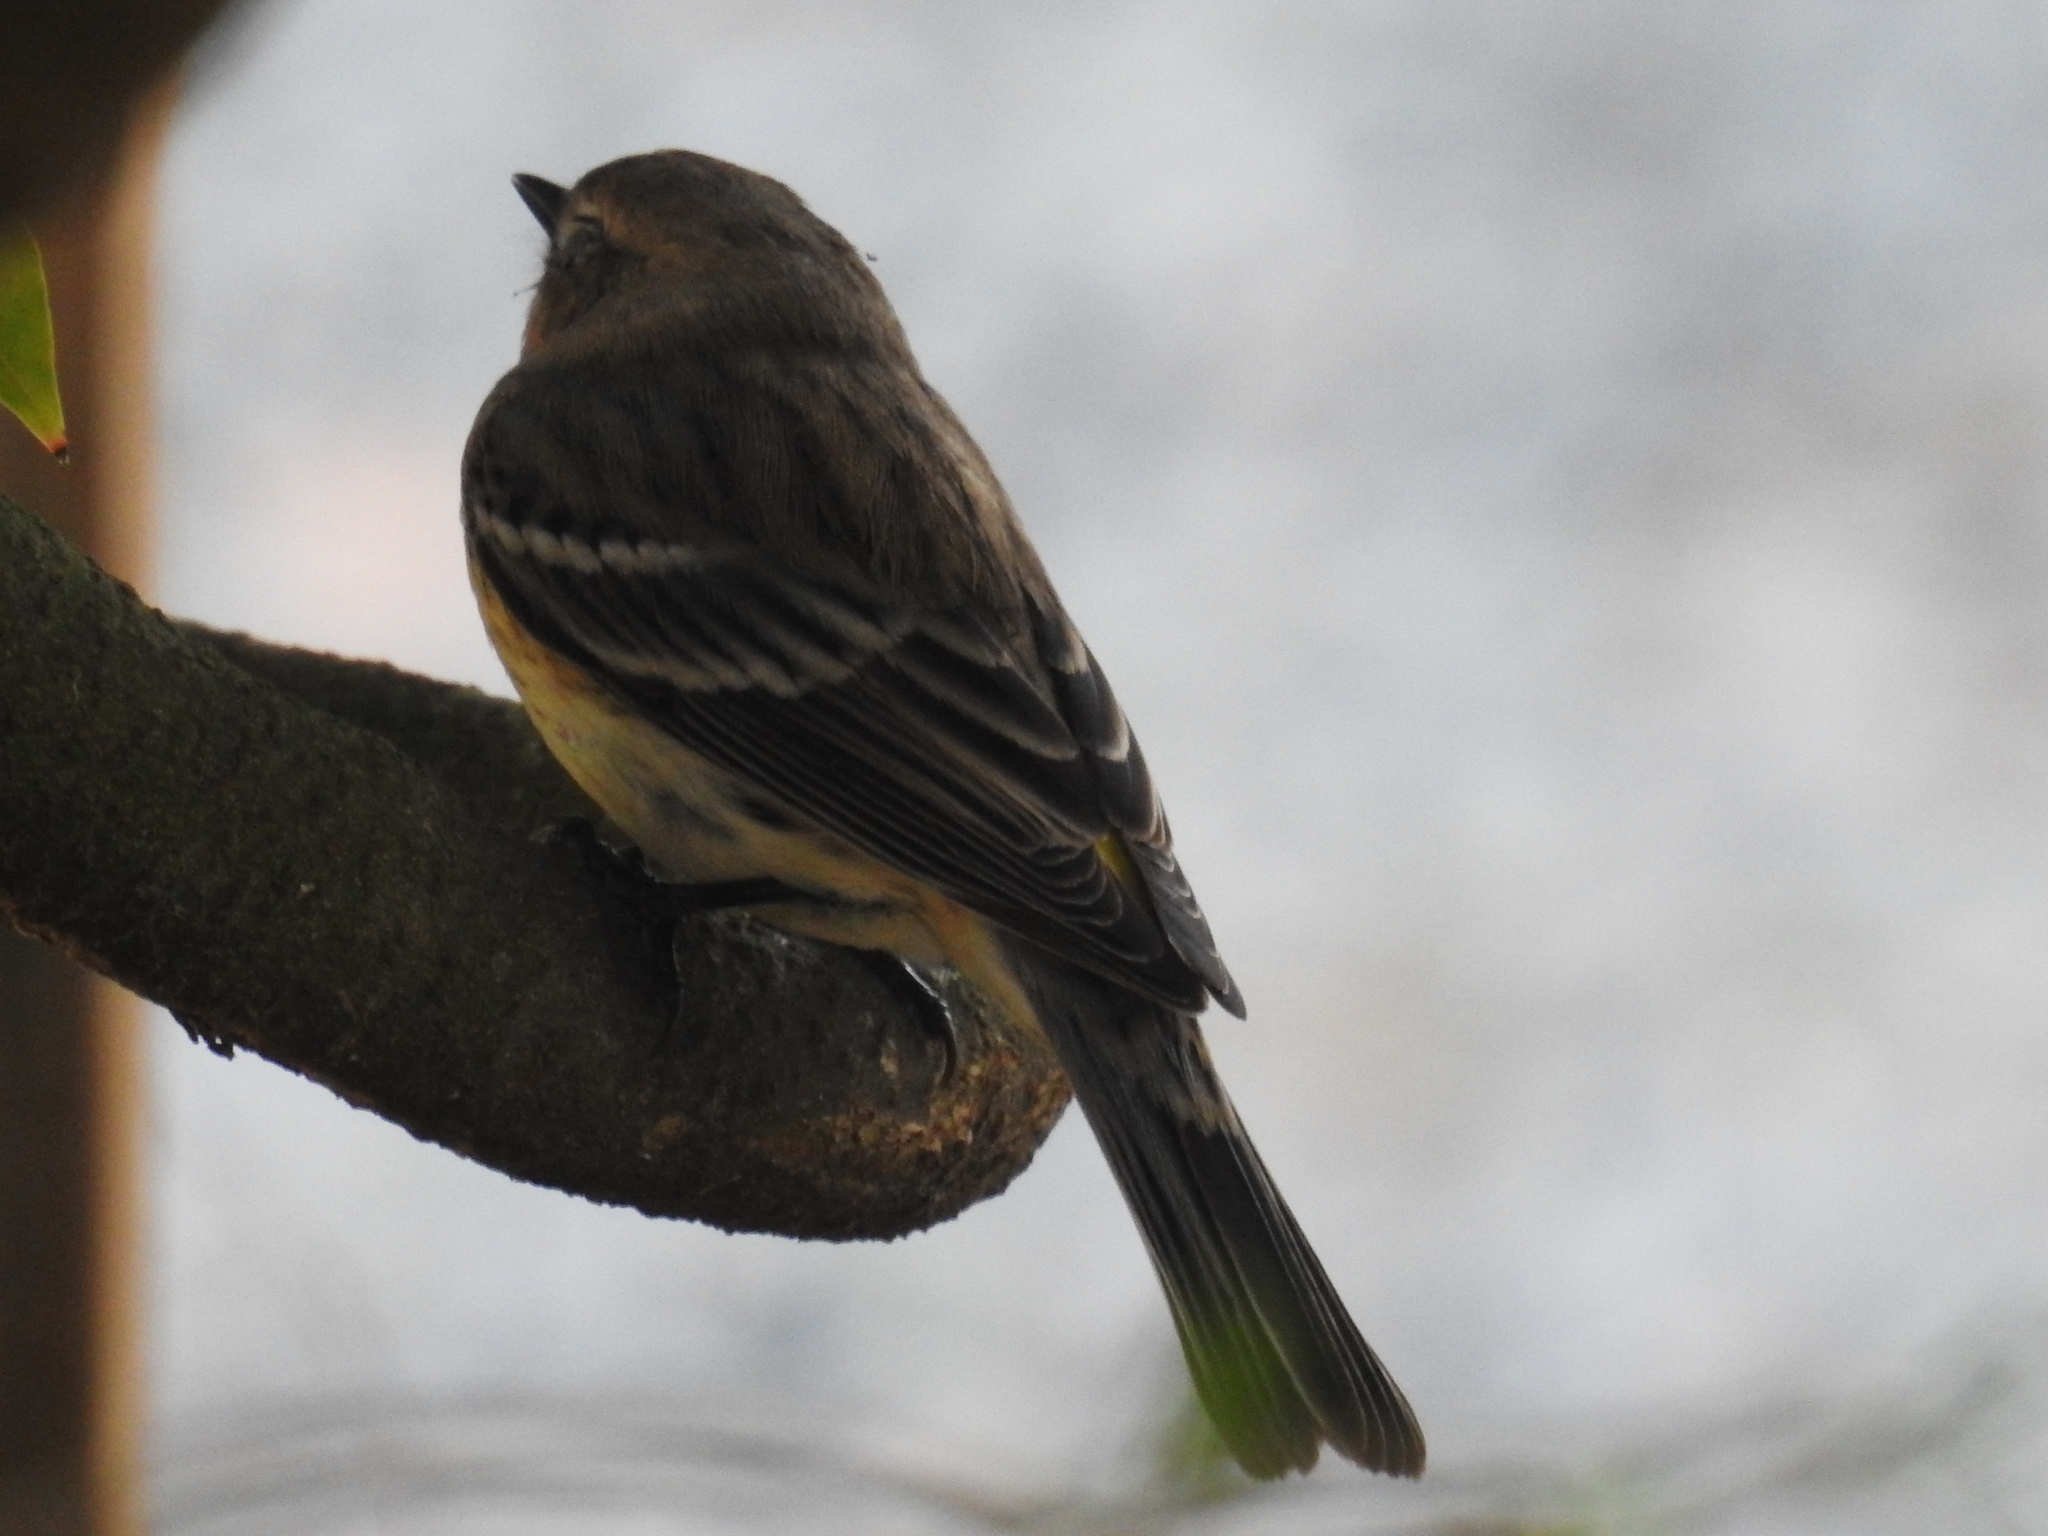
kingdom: Animalia
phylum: Chordata
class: Aves
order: Passeriformes
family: Parulidae
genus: Setophaga
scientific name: Setophaga coronata
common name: Myrtle warbler
